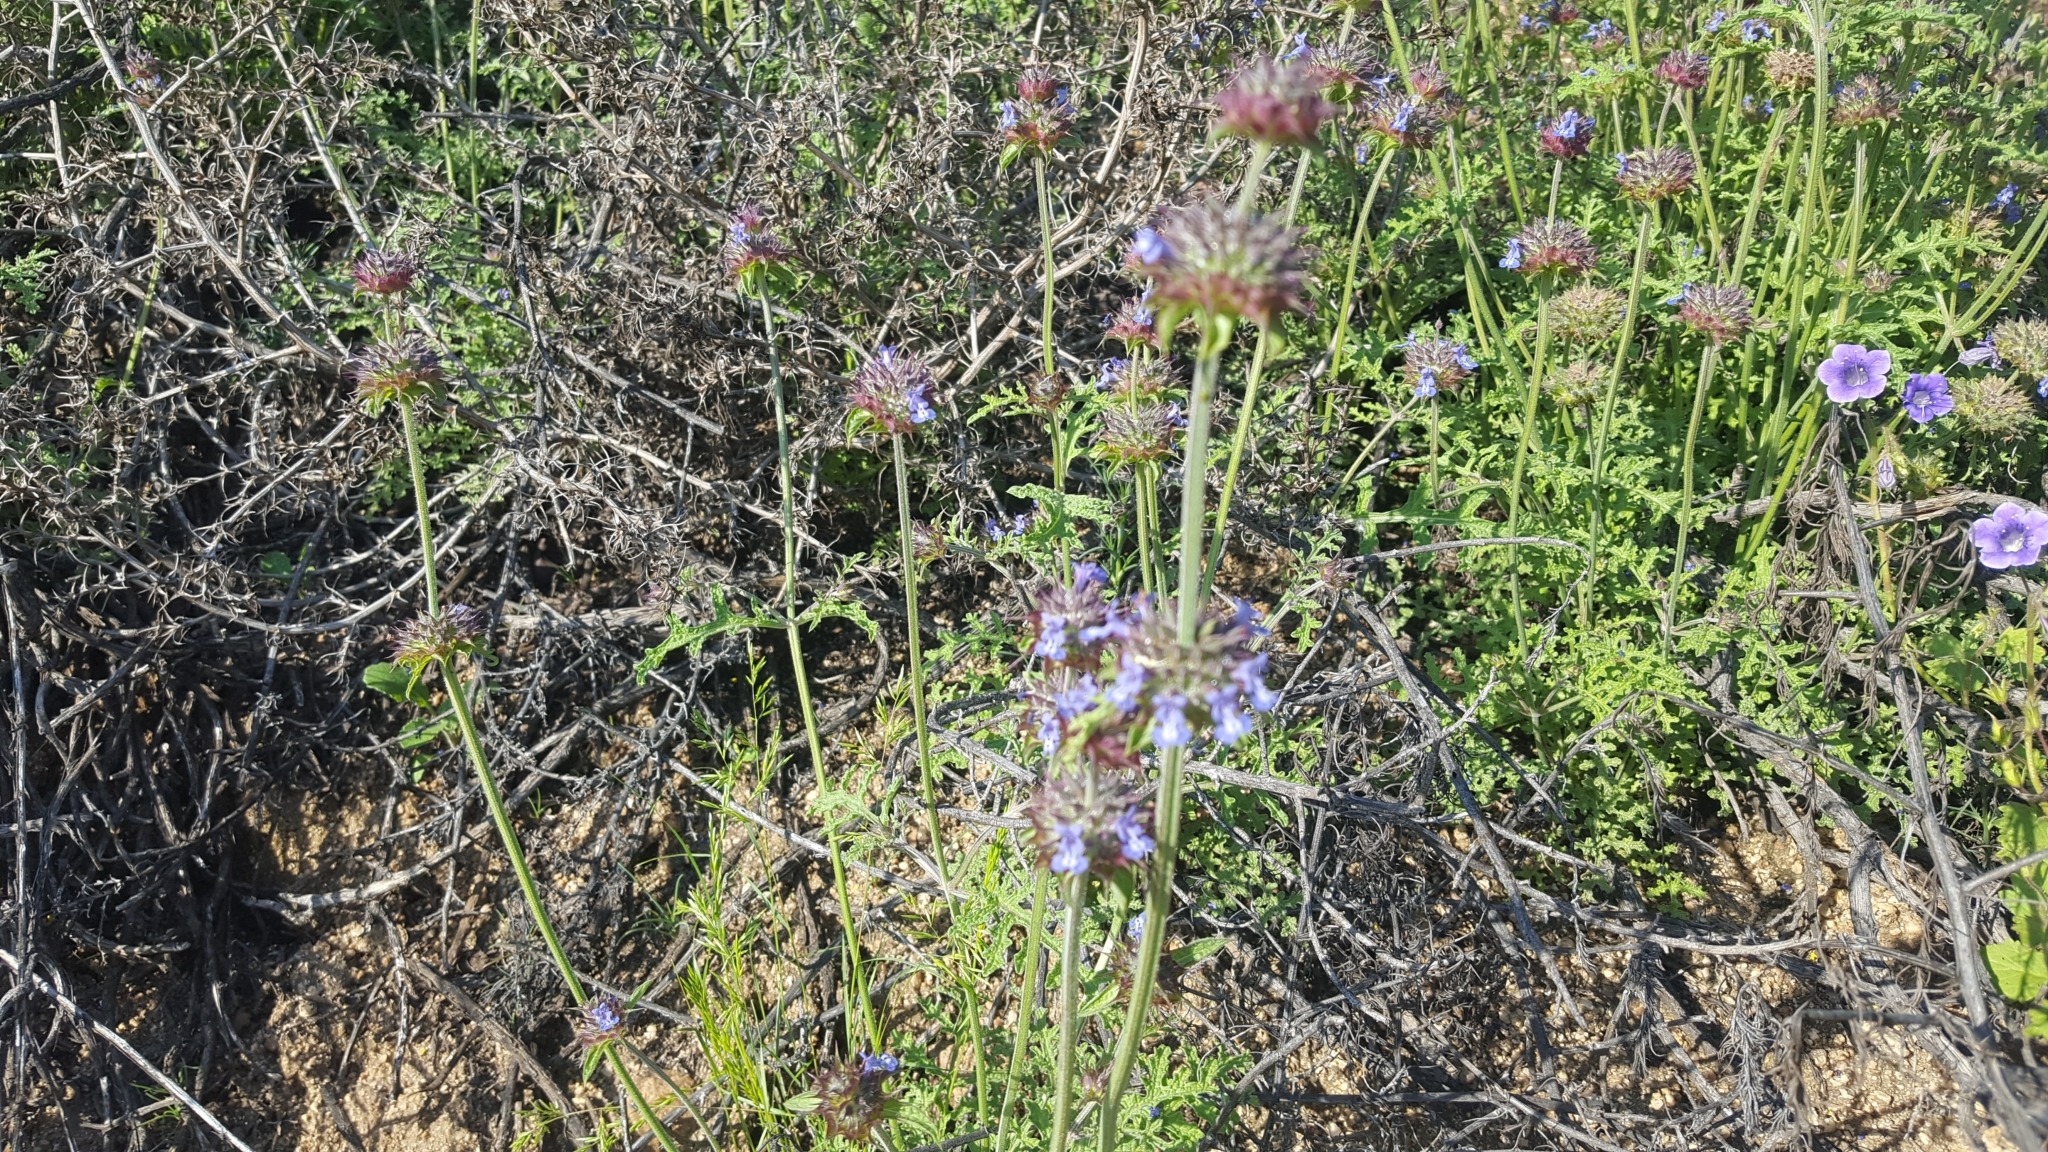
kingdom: Plantae
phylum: Tracheophyta
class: Magnoliopsida
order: Lamiales
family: Lamiaceae
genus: Salvia
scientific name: Salvia columbariae
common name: Chia
